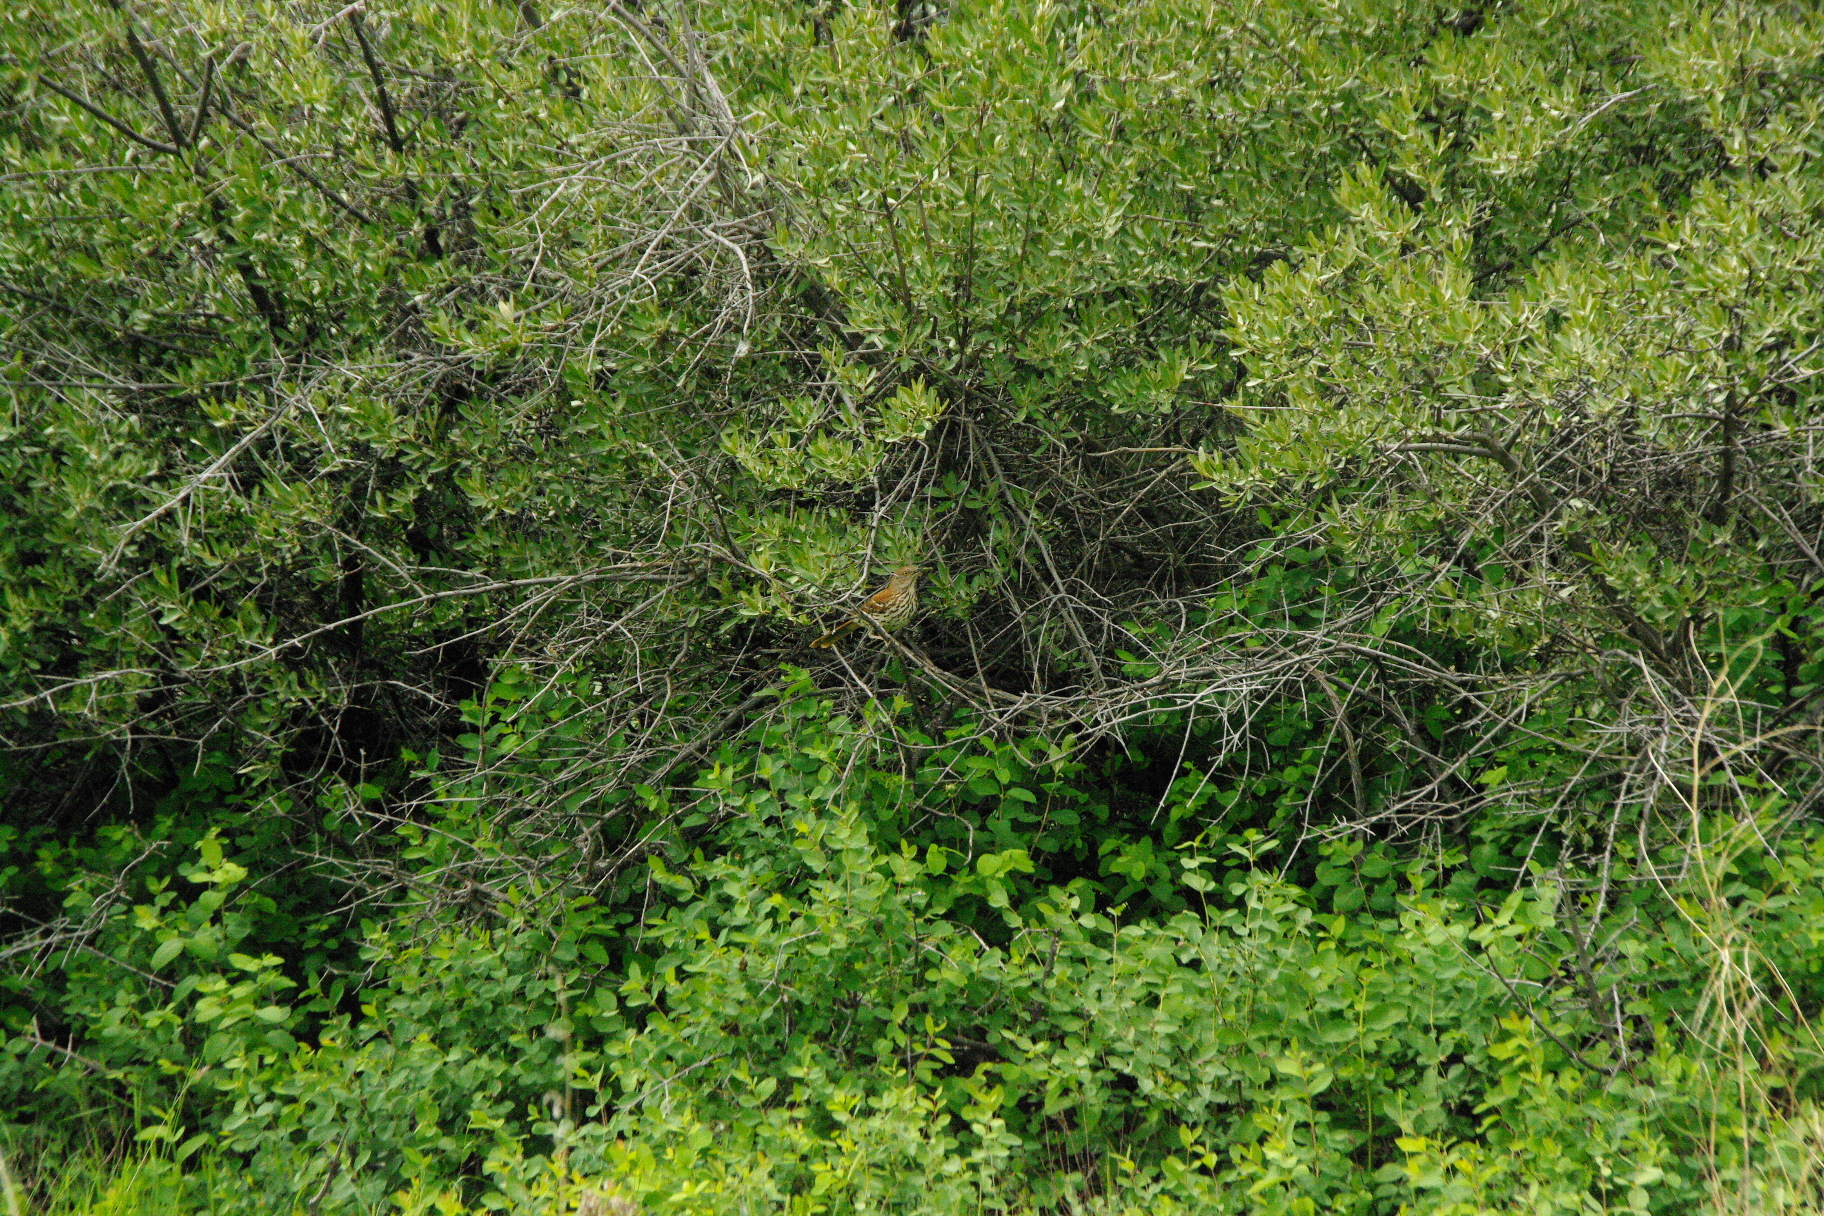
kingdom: Animalia
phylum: Chordata
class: Aves
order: Passeriformes
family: Mimidae
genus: Toxostoma
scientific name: Toxostoma rufum
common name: Brown thrasher
